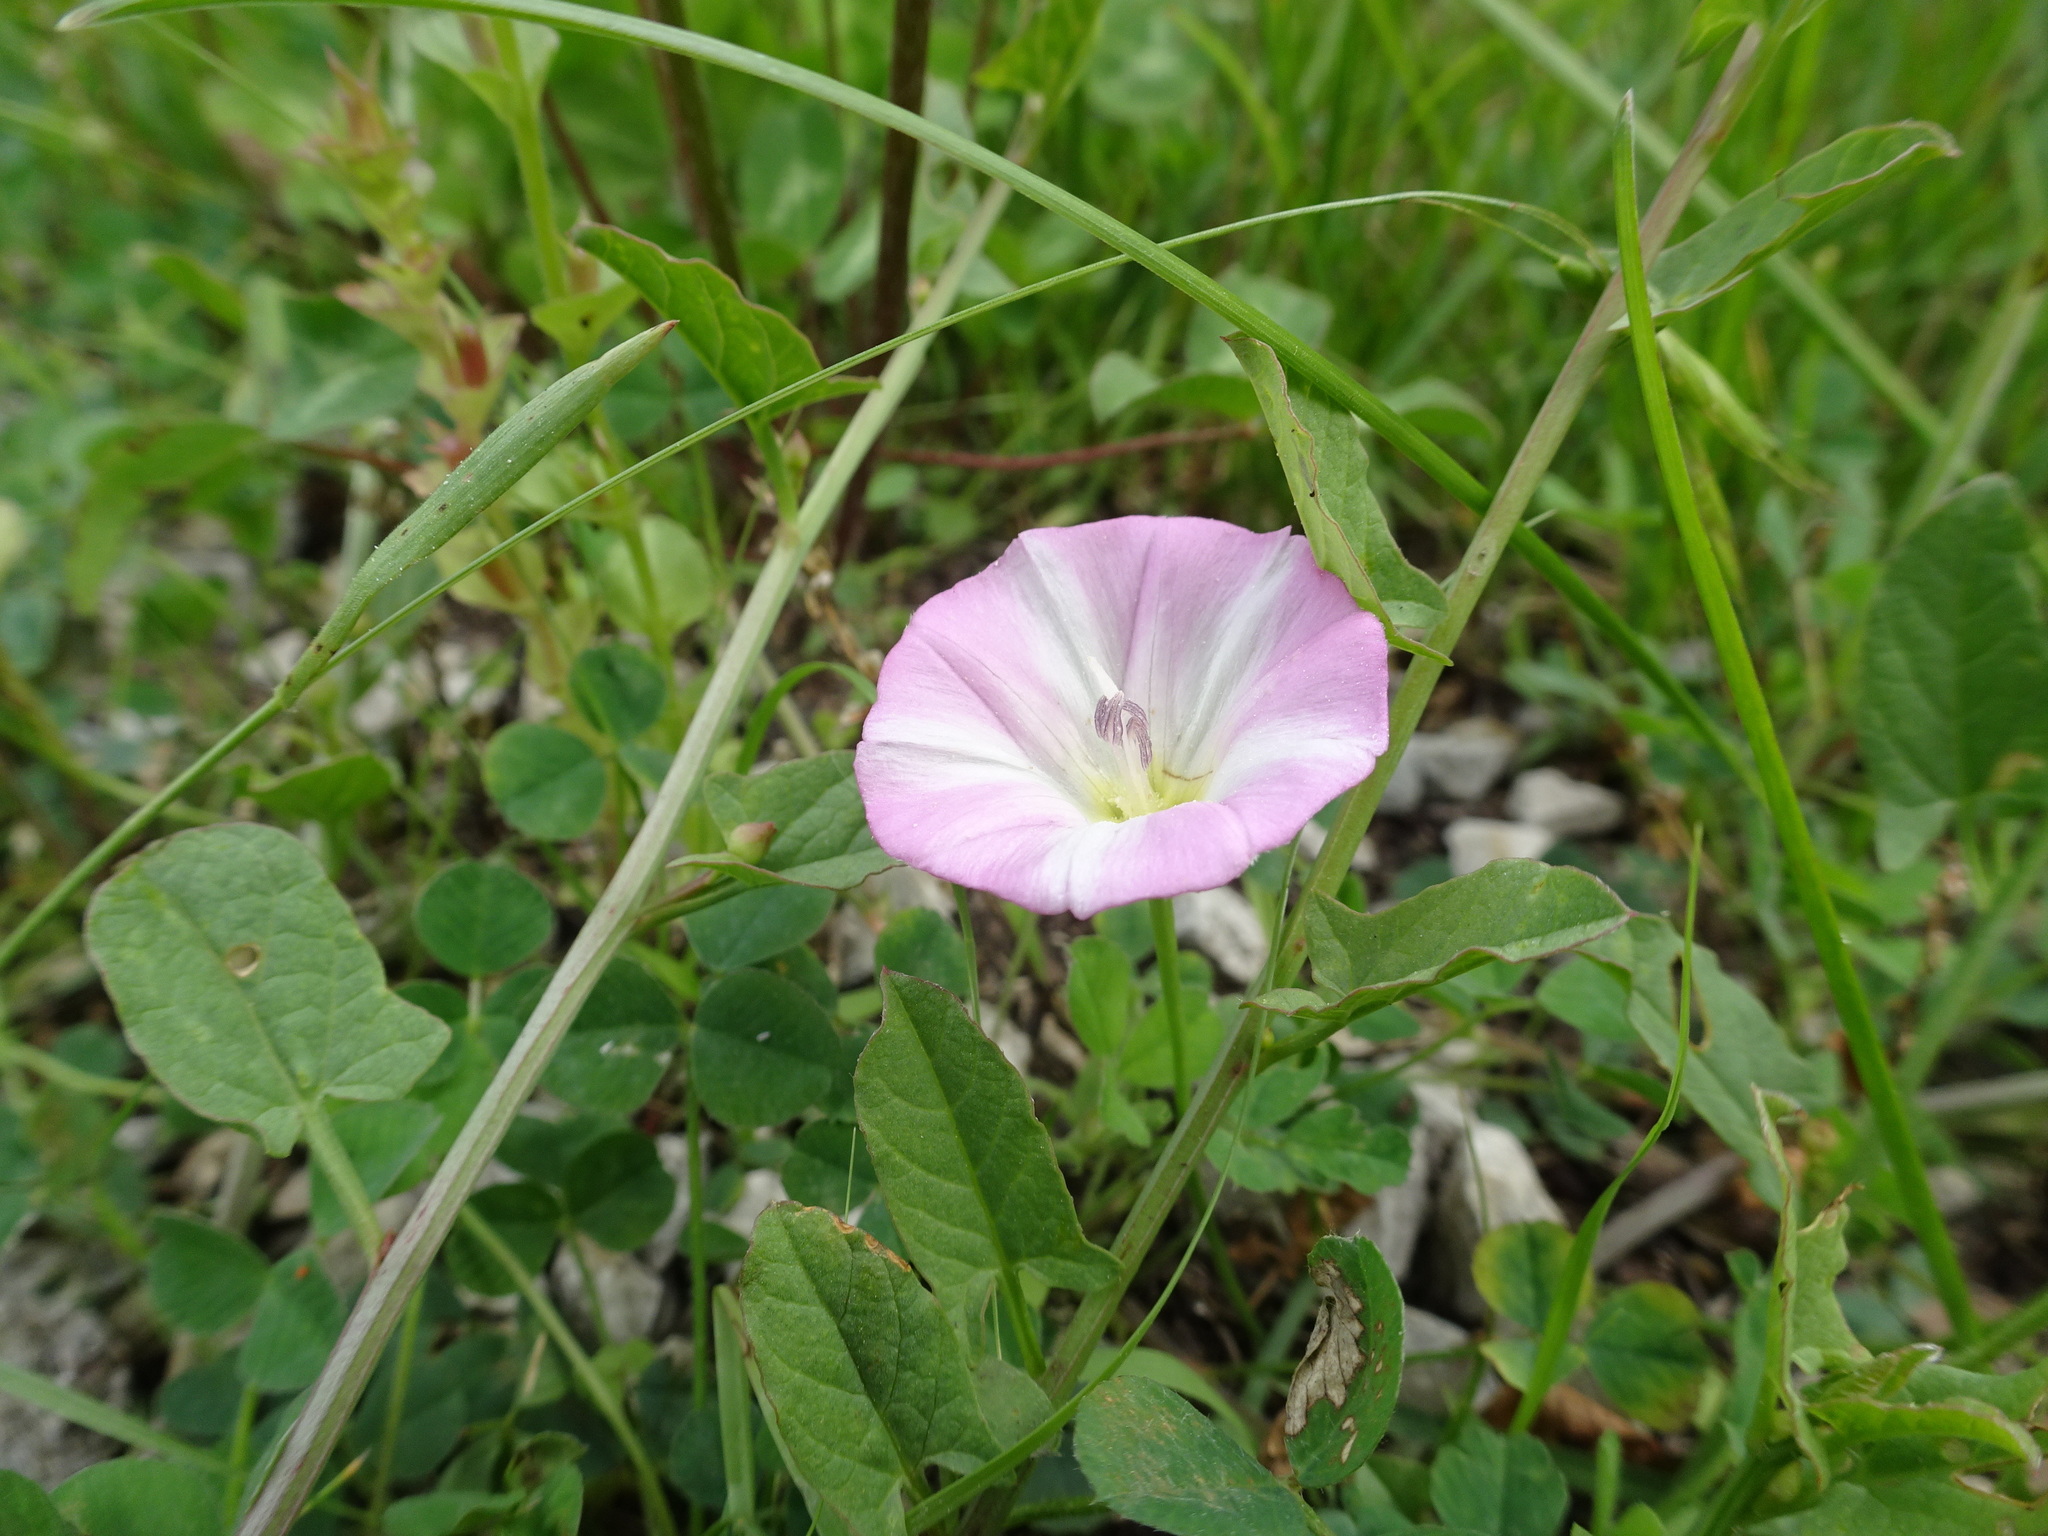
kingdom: Plantae
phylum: Tracheophyta
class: Magnoliopsida
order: Solanales
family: Convolvulaceae
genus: Convolvulus
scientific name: Convolvulus arvensis
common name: Field bindweed
